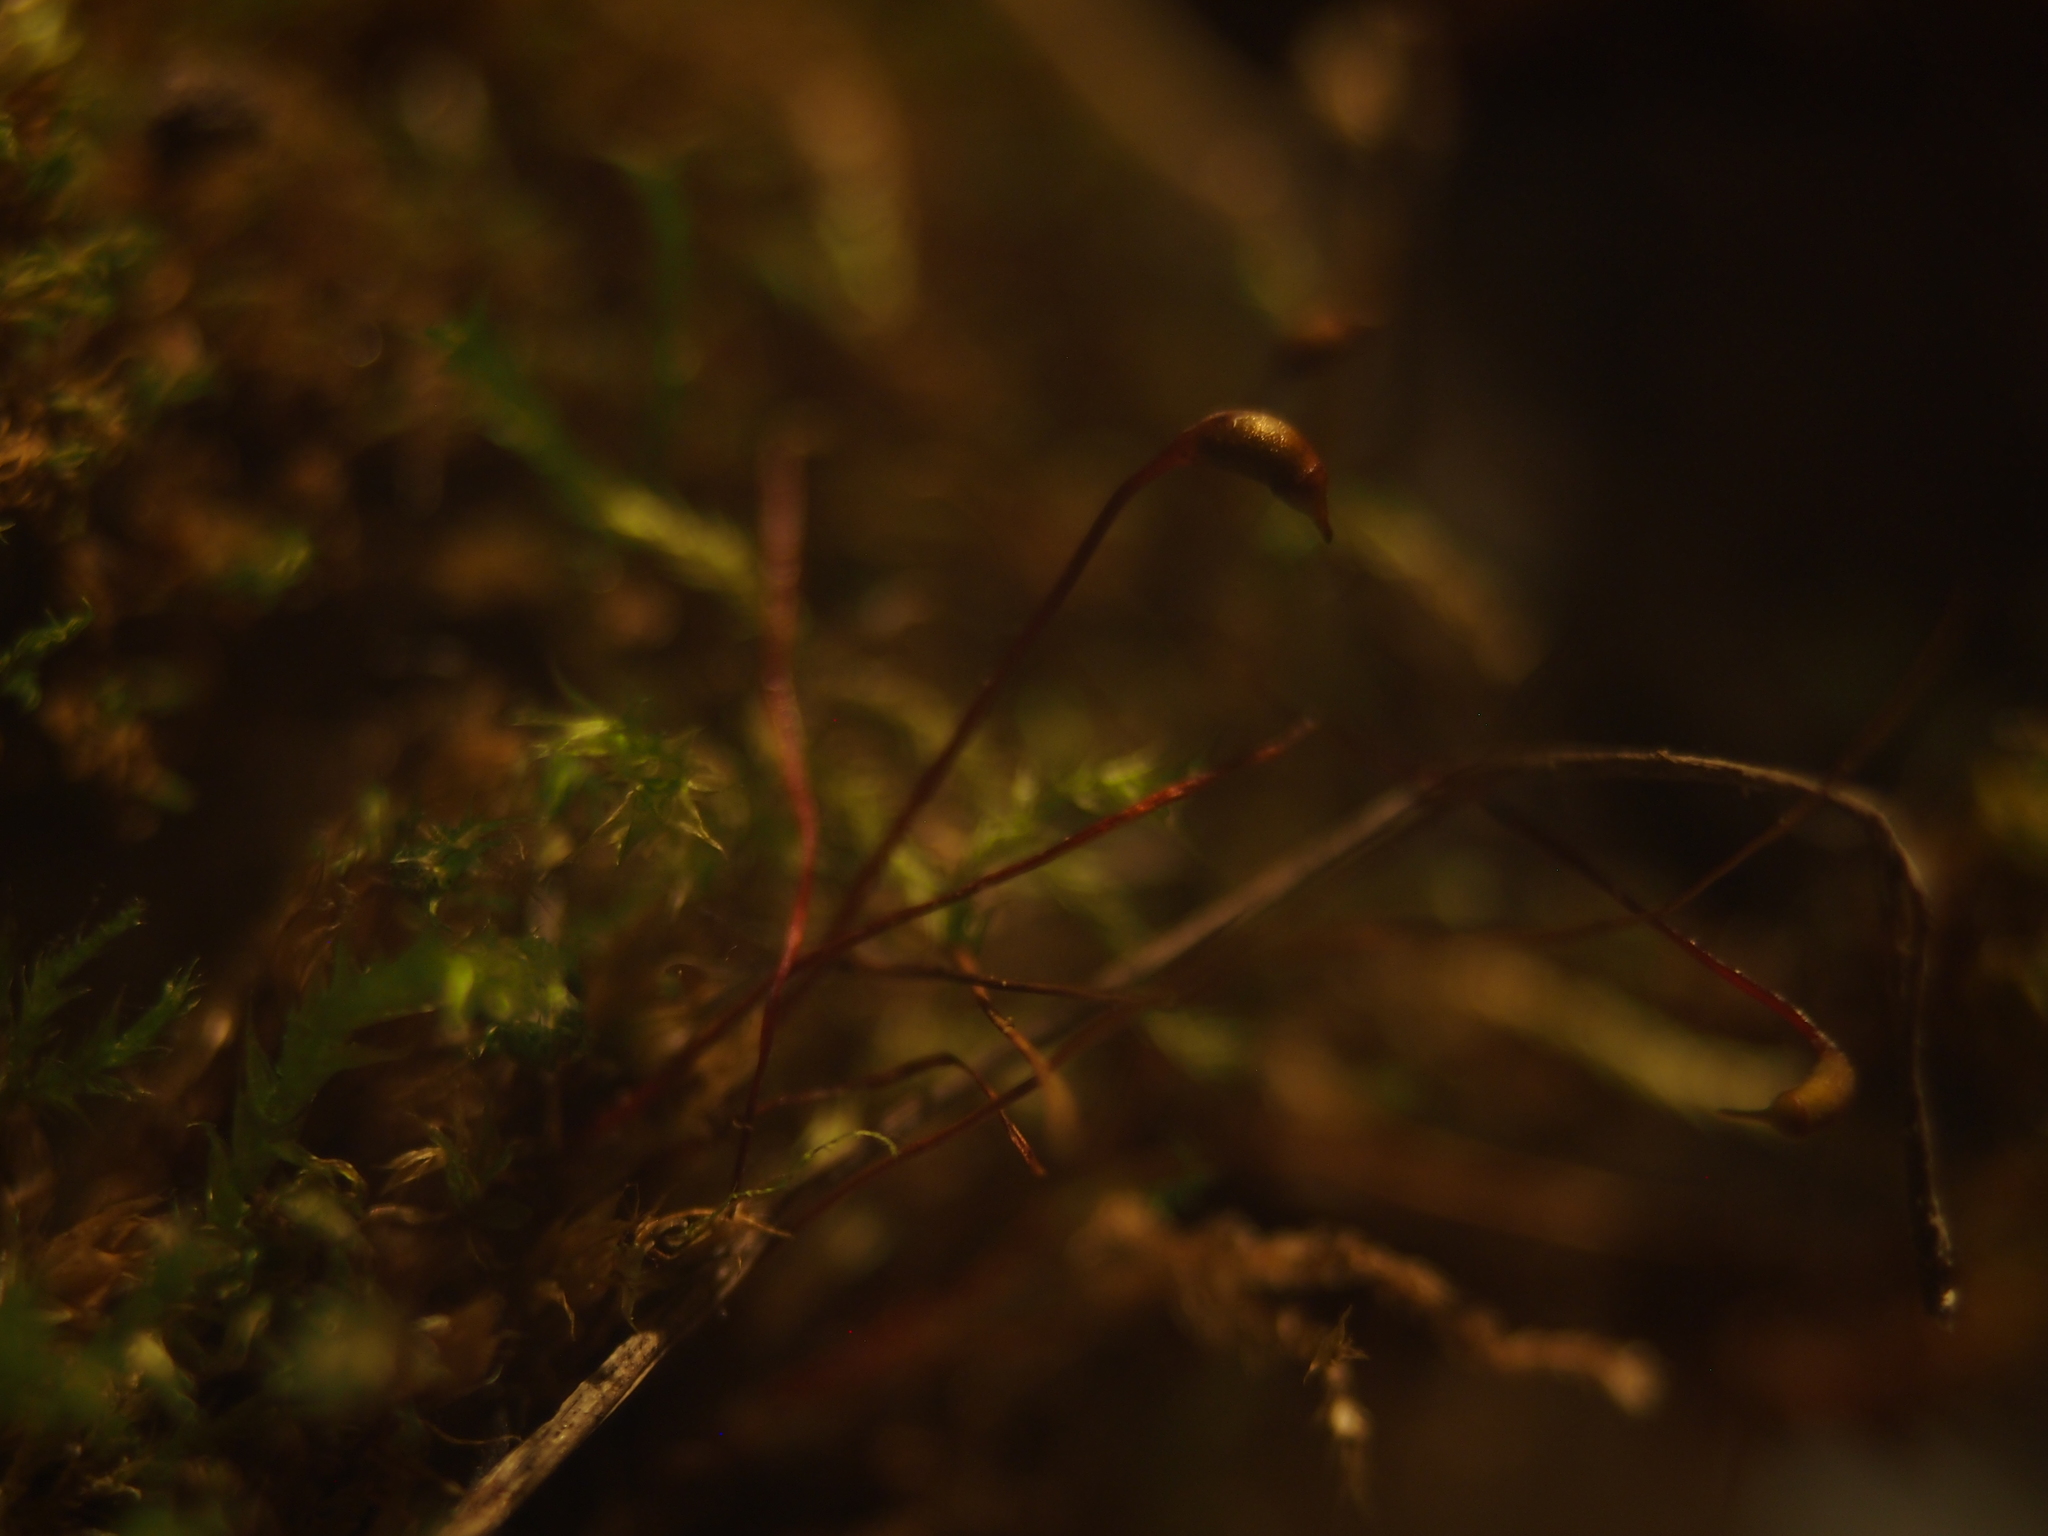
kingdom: Plantae
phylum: Bryophyta
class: Bryopsida
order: Hypnales
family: Brachytheciaceae
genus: Rhynchostegium
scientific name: Rhynchostegium megapolitanum
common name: Megapolitan feather-moss
